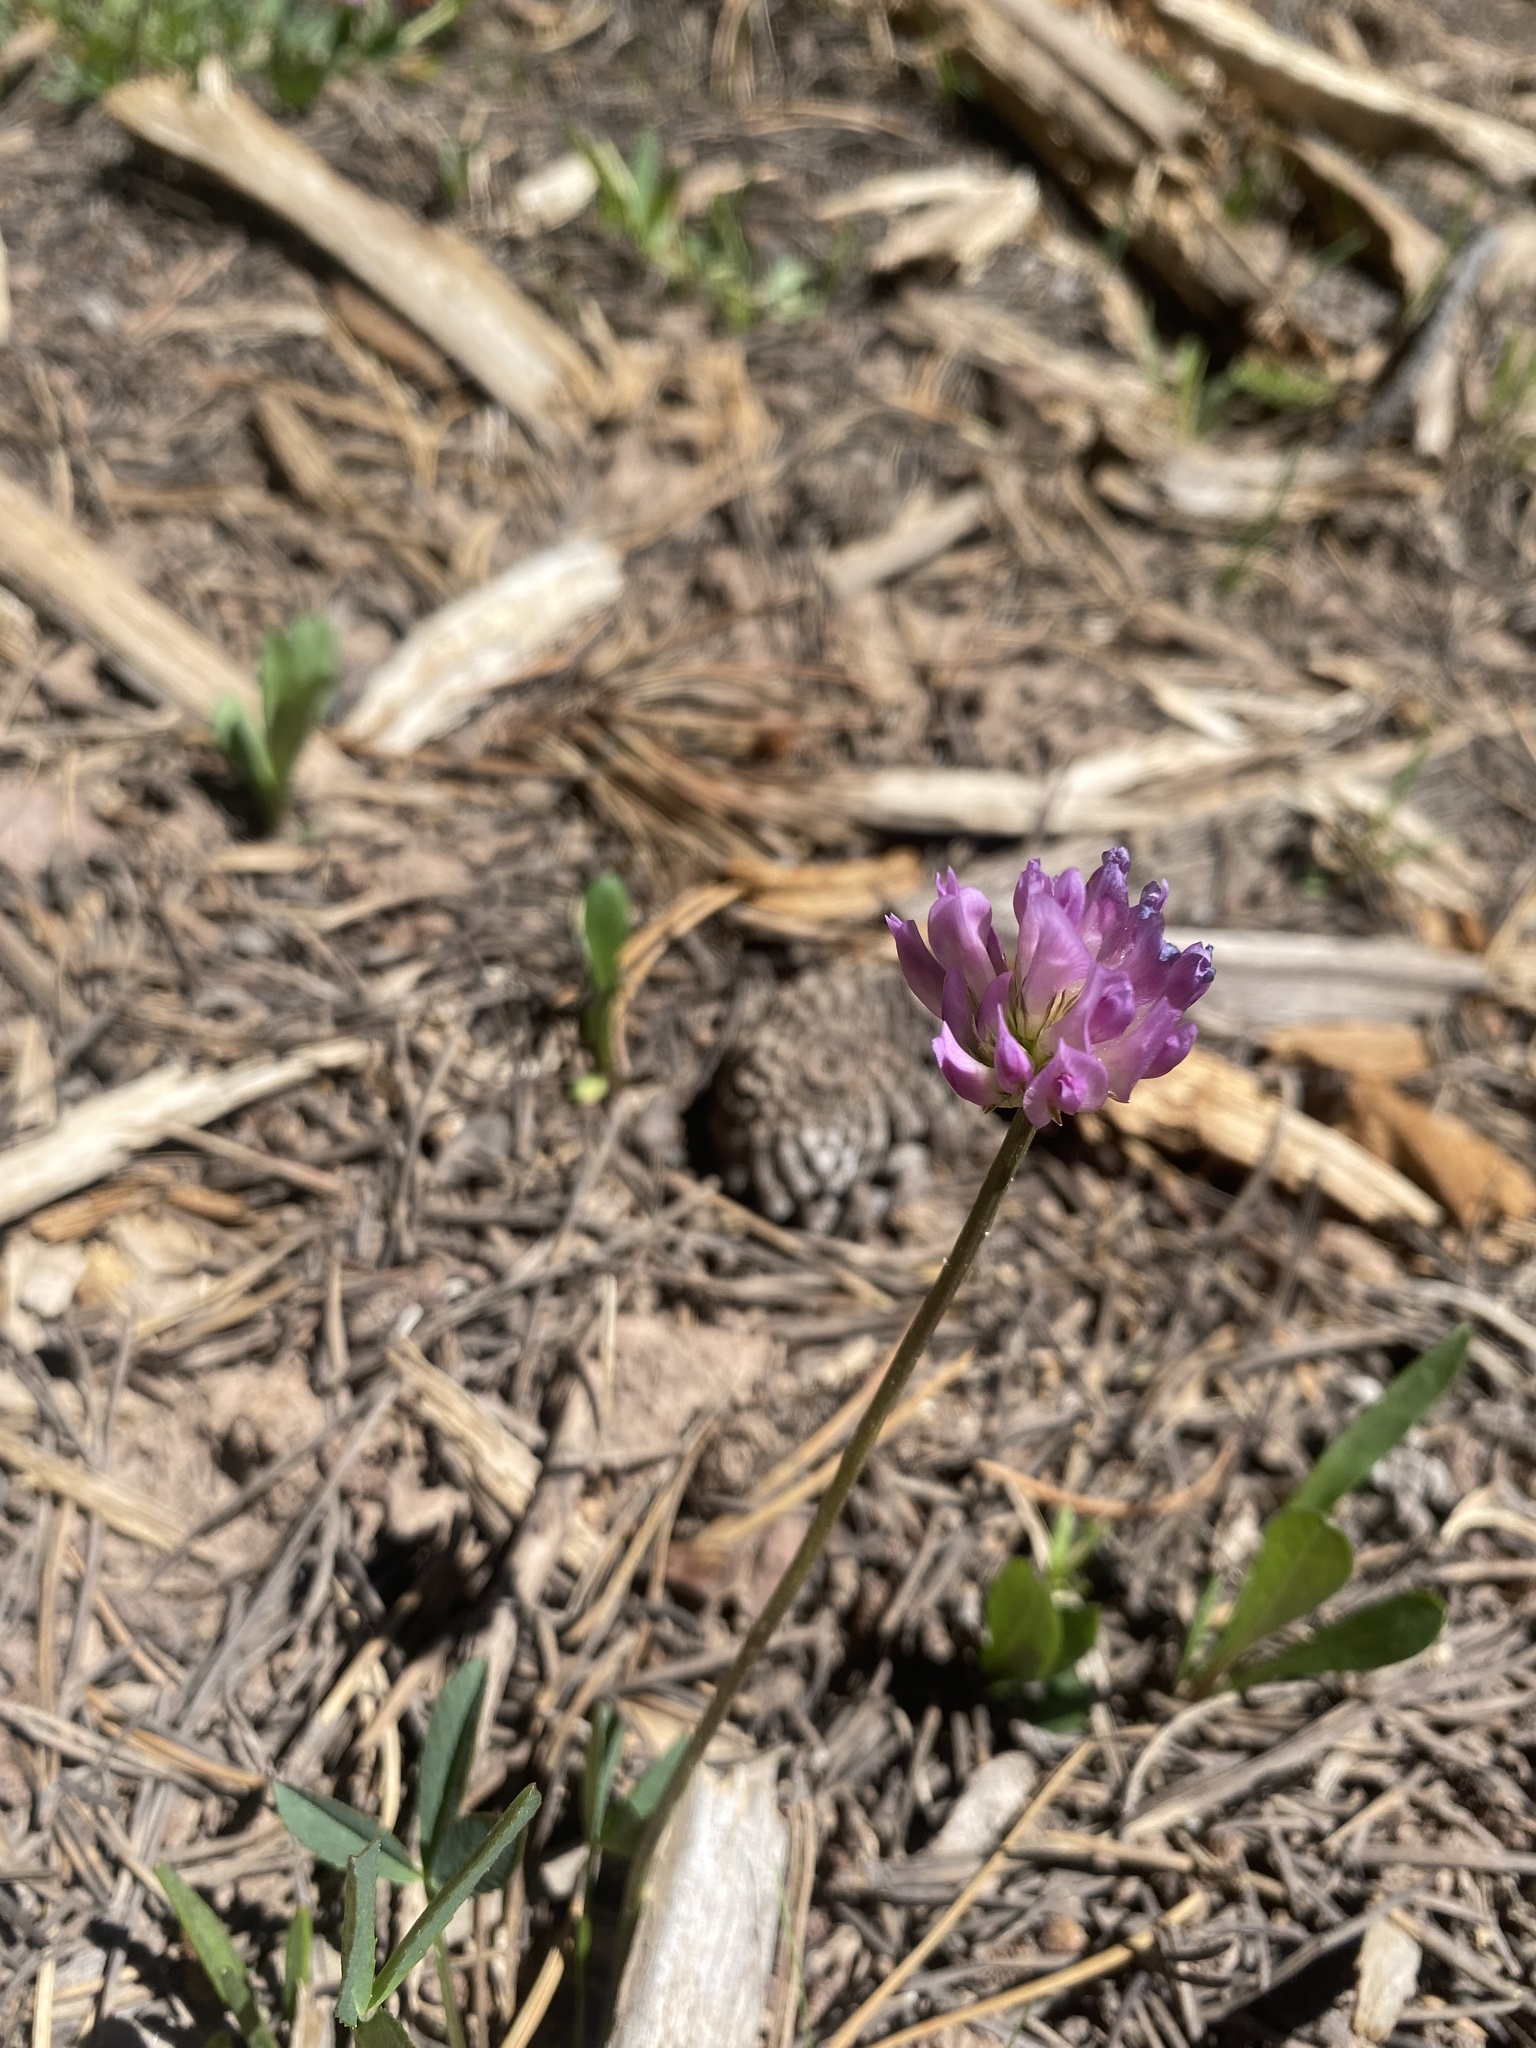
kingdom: Plantae
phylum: Tracheophyta
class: Magnoliopsida
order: Fabales
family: Fabaceae
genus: Trifolium
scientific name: Trifolium parryi
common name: Parry's clover
